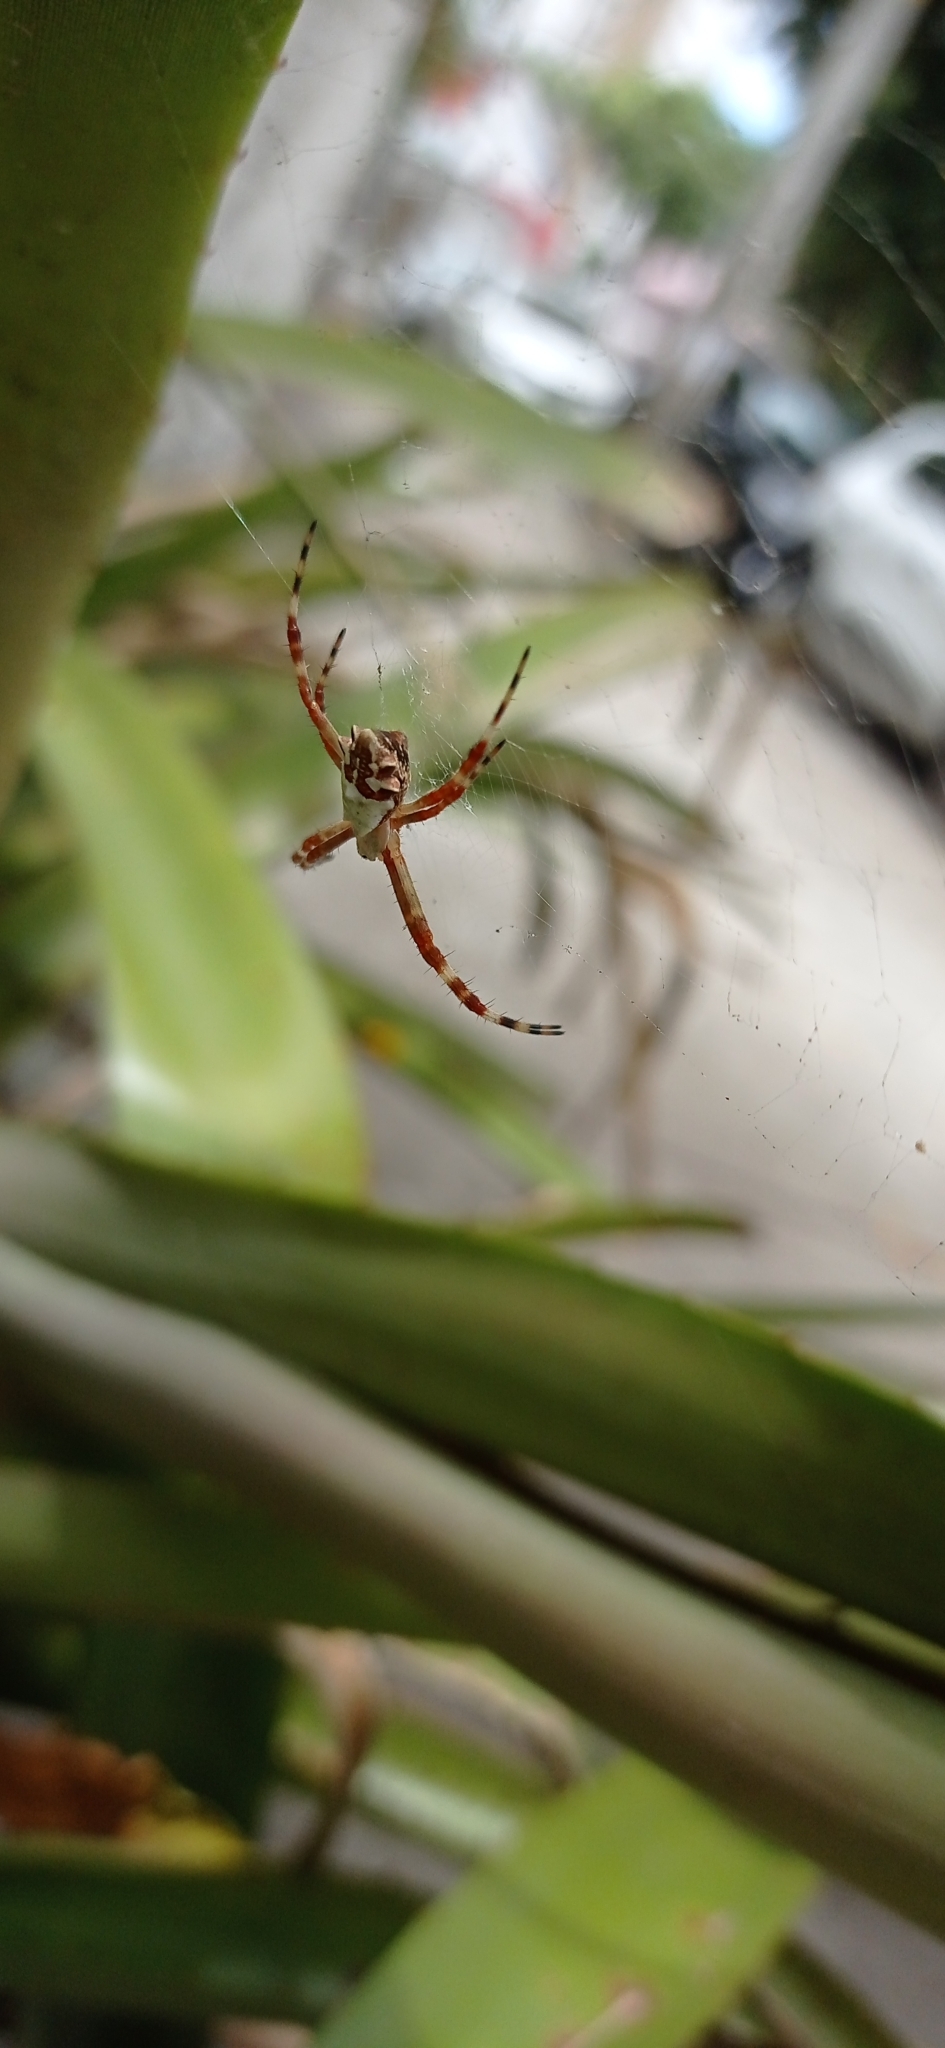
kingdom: Animalia
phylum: Arthropoda
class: Arachnida
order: Araneae
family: Araneidae
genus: Argiope
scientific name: Argiope argentata
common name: Orb weavers
